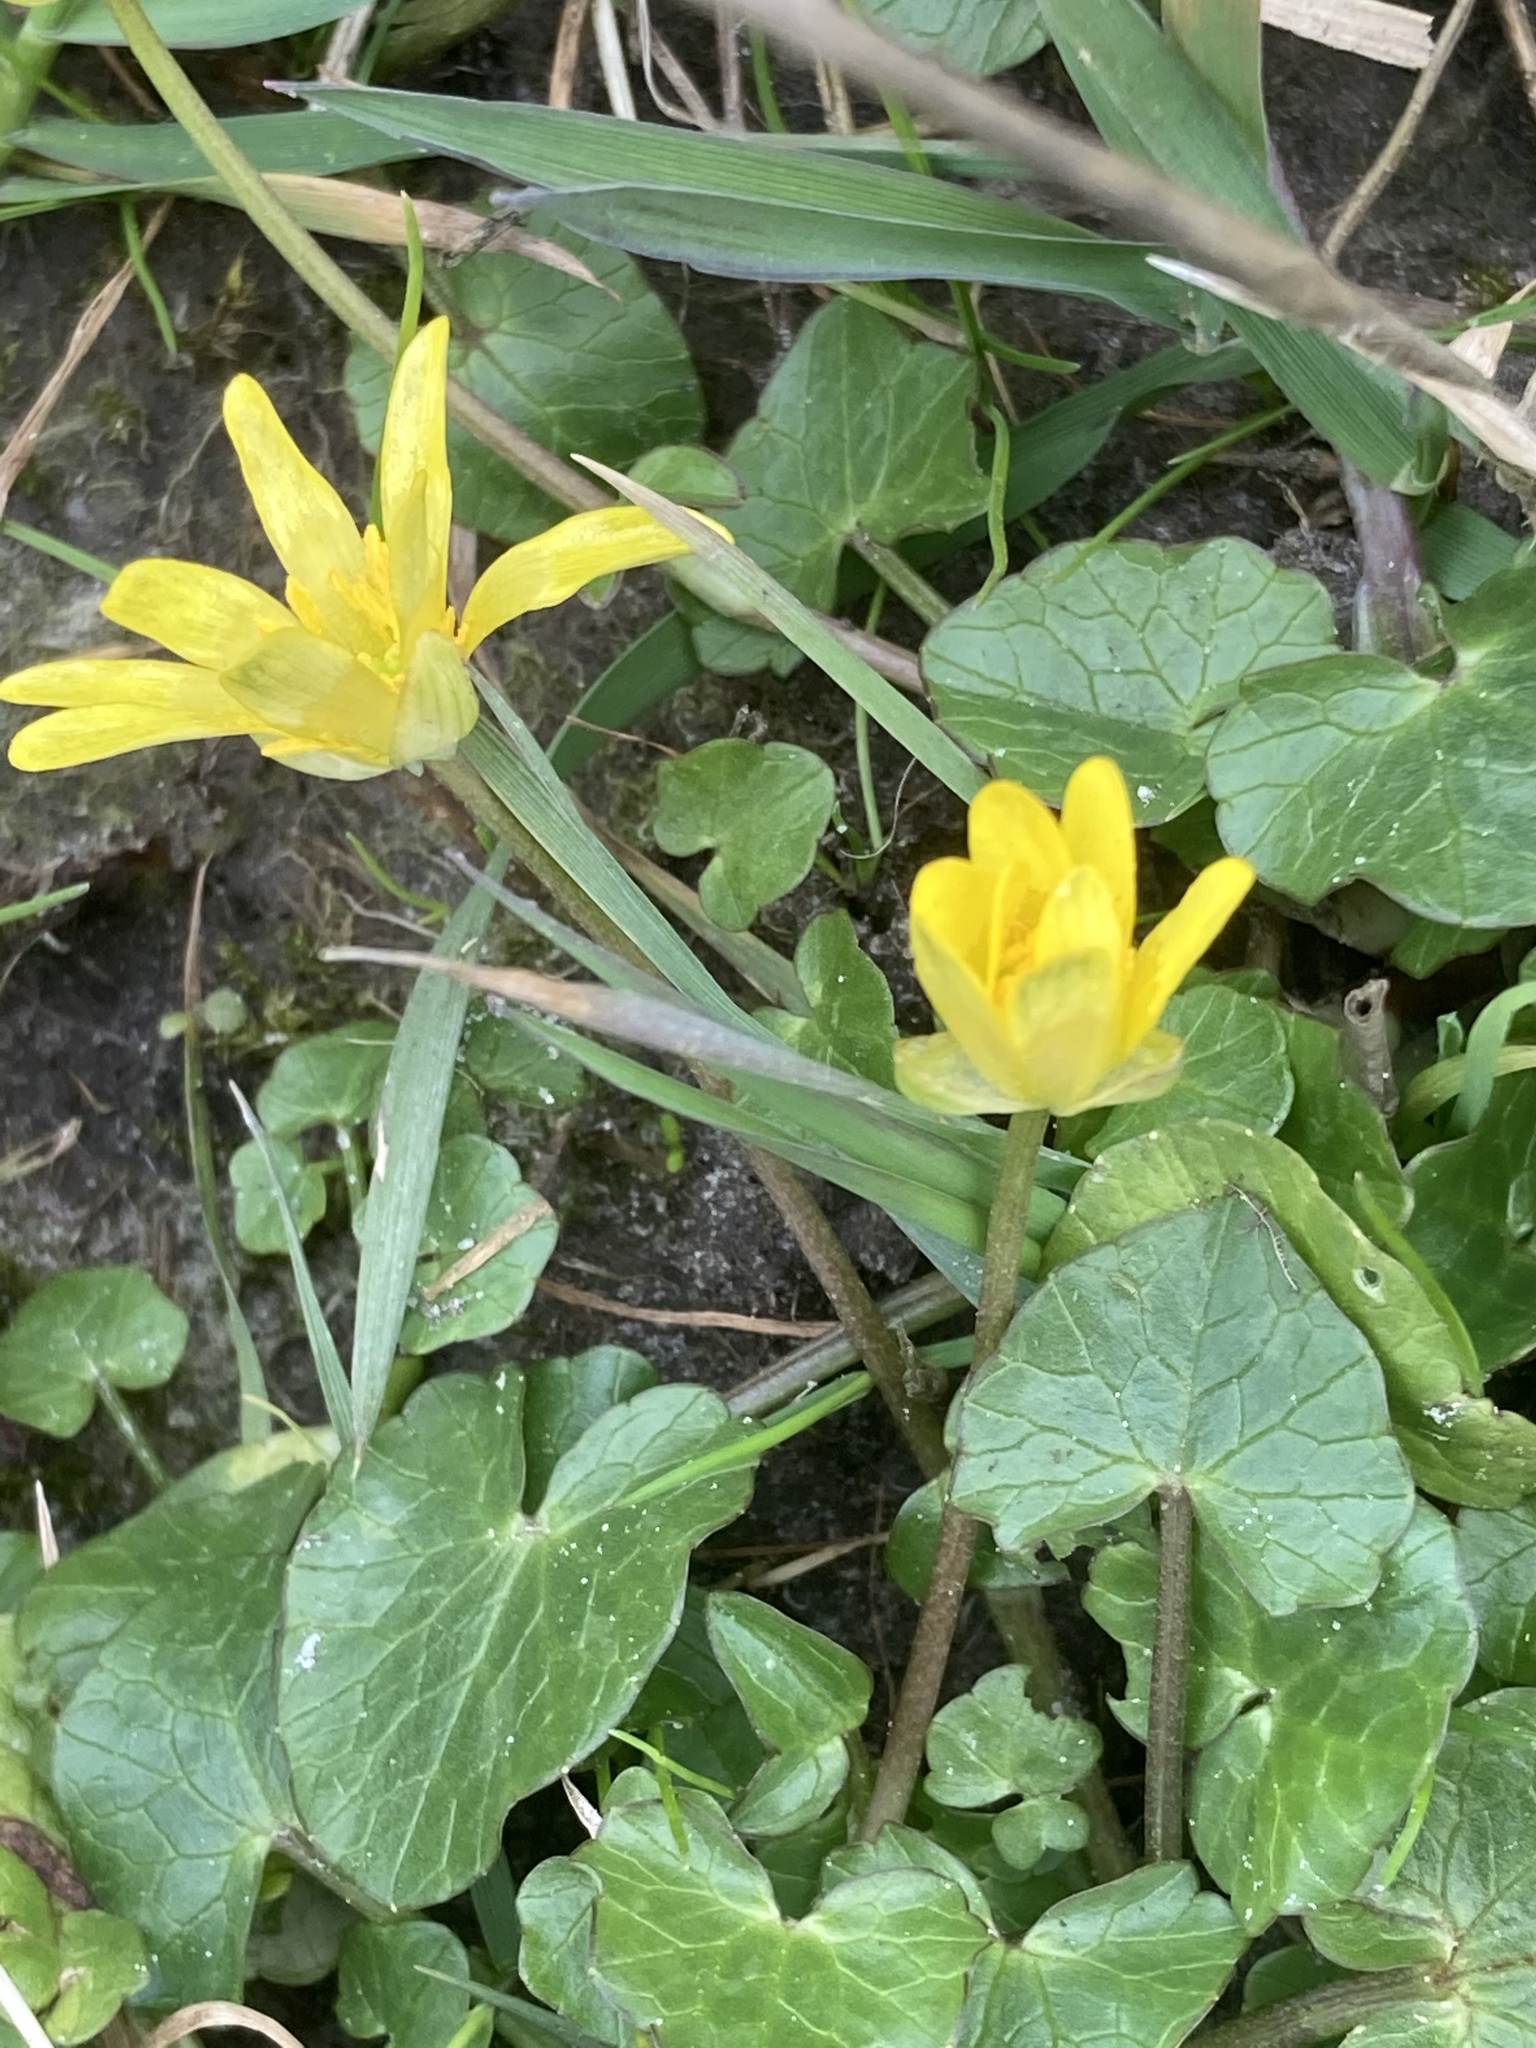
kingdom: Plantae
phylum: Tracheophyta
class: Magnoliopsida
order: Ranunculales
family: Ranunculaceae
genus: Ficaria
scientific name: Ficaria verna
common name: Lesser celandine
